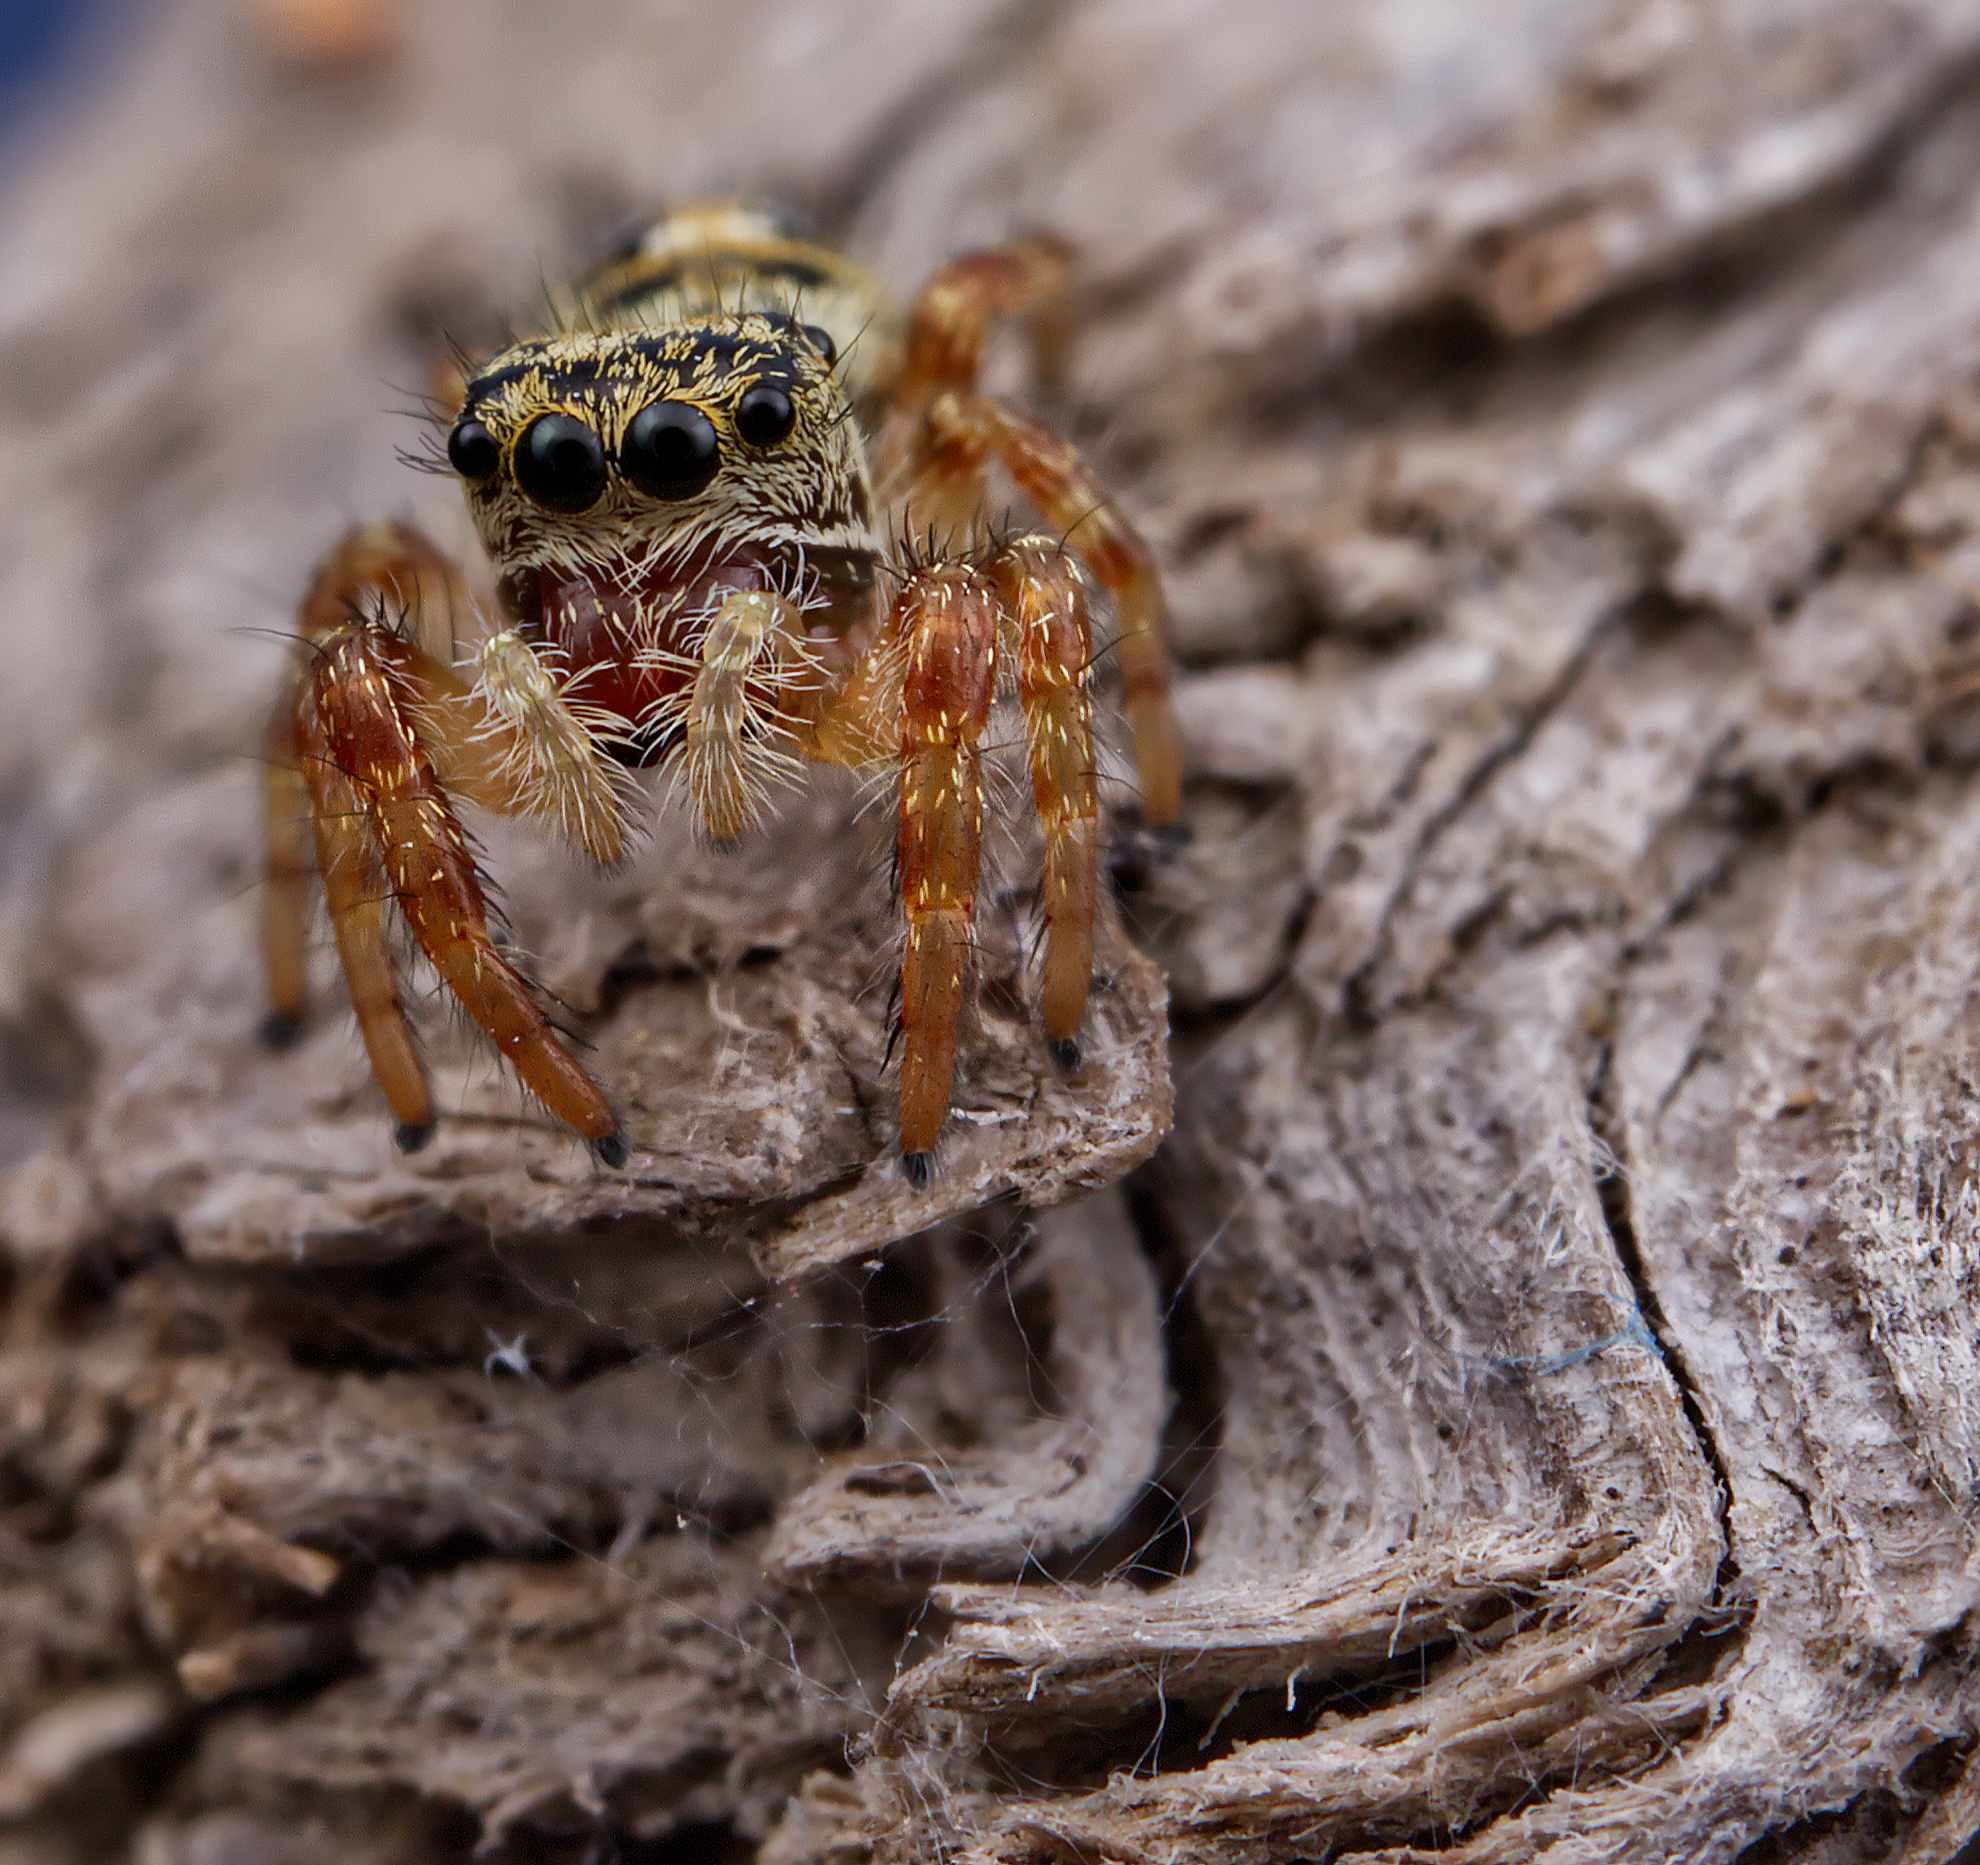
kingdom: Animalia
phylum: Arthropoda
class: Arachnida
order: Araneae
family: Salticidae
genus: Phidippus
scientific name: Phidippus princeps
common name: Grayish jumping spider
